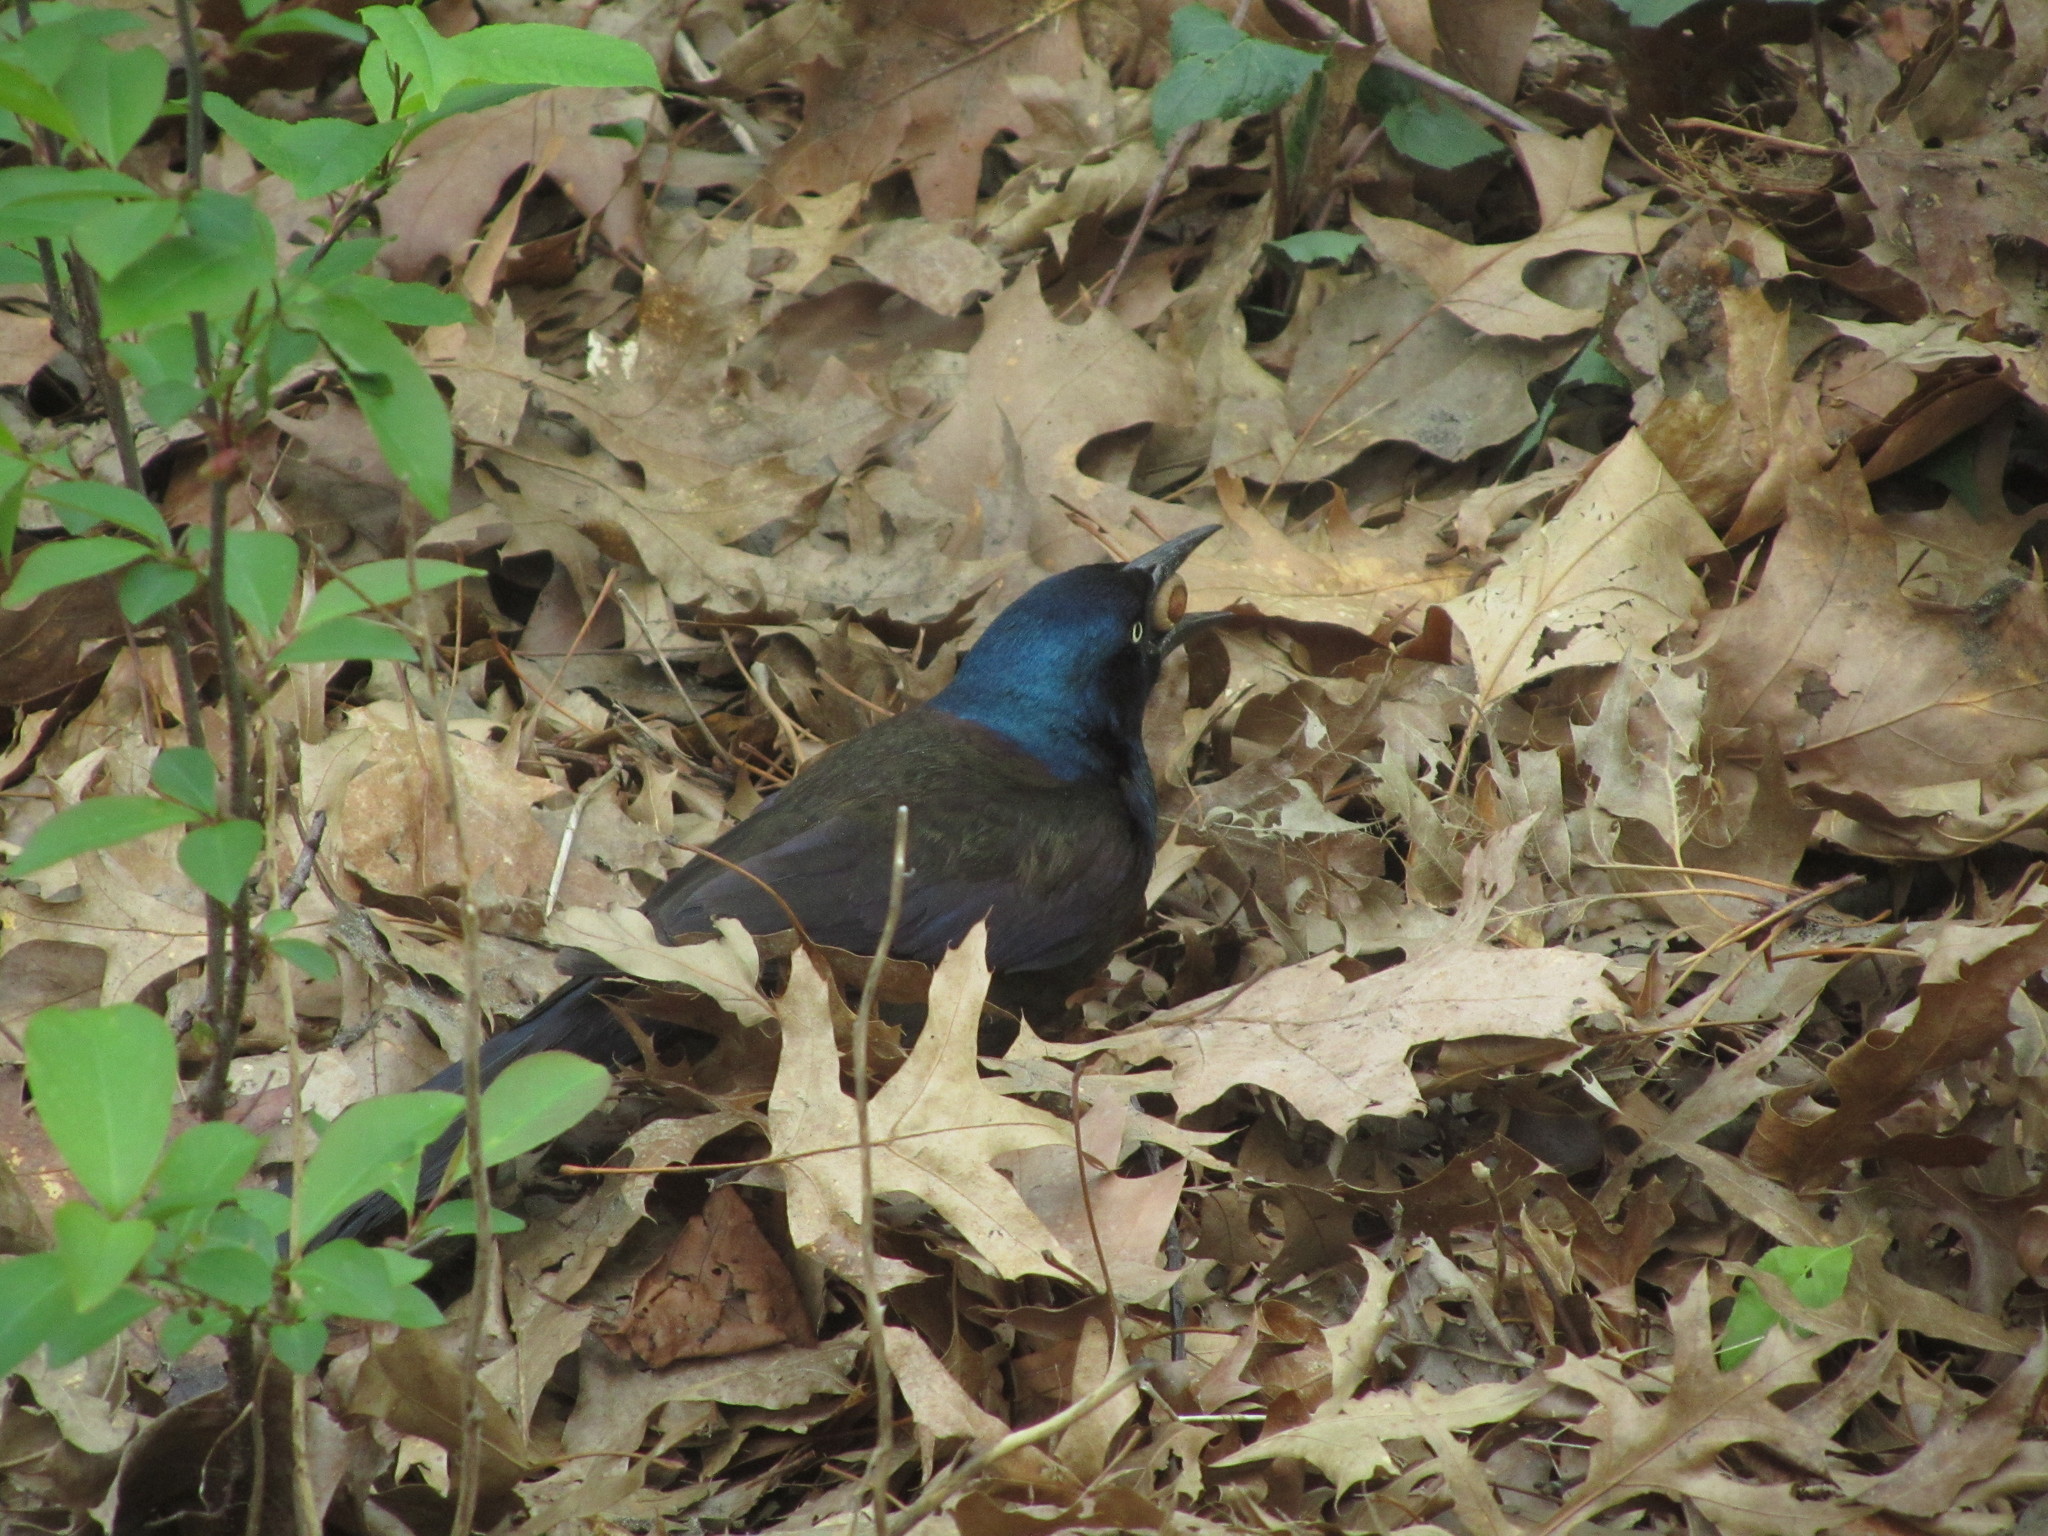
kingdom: Animalia
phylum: Chordata
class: Aves
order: Passeriformes
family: Icteridae
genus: Quiscalus
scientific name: Quiscalus quiscula
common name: Common grackle
